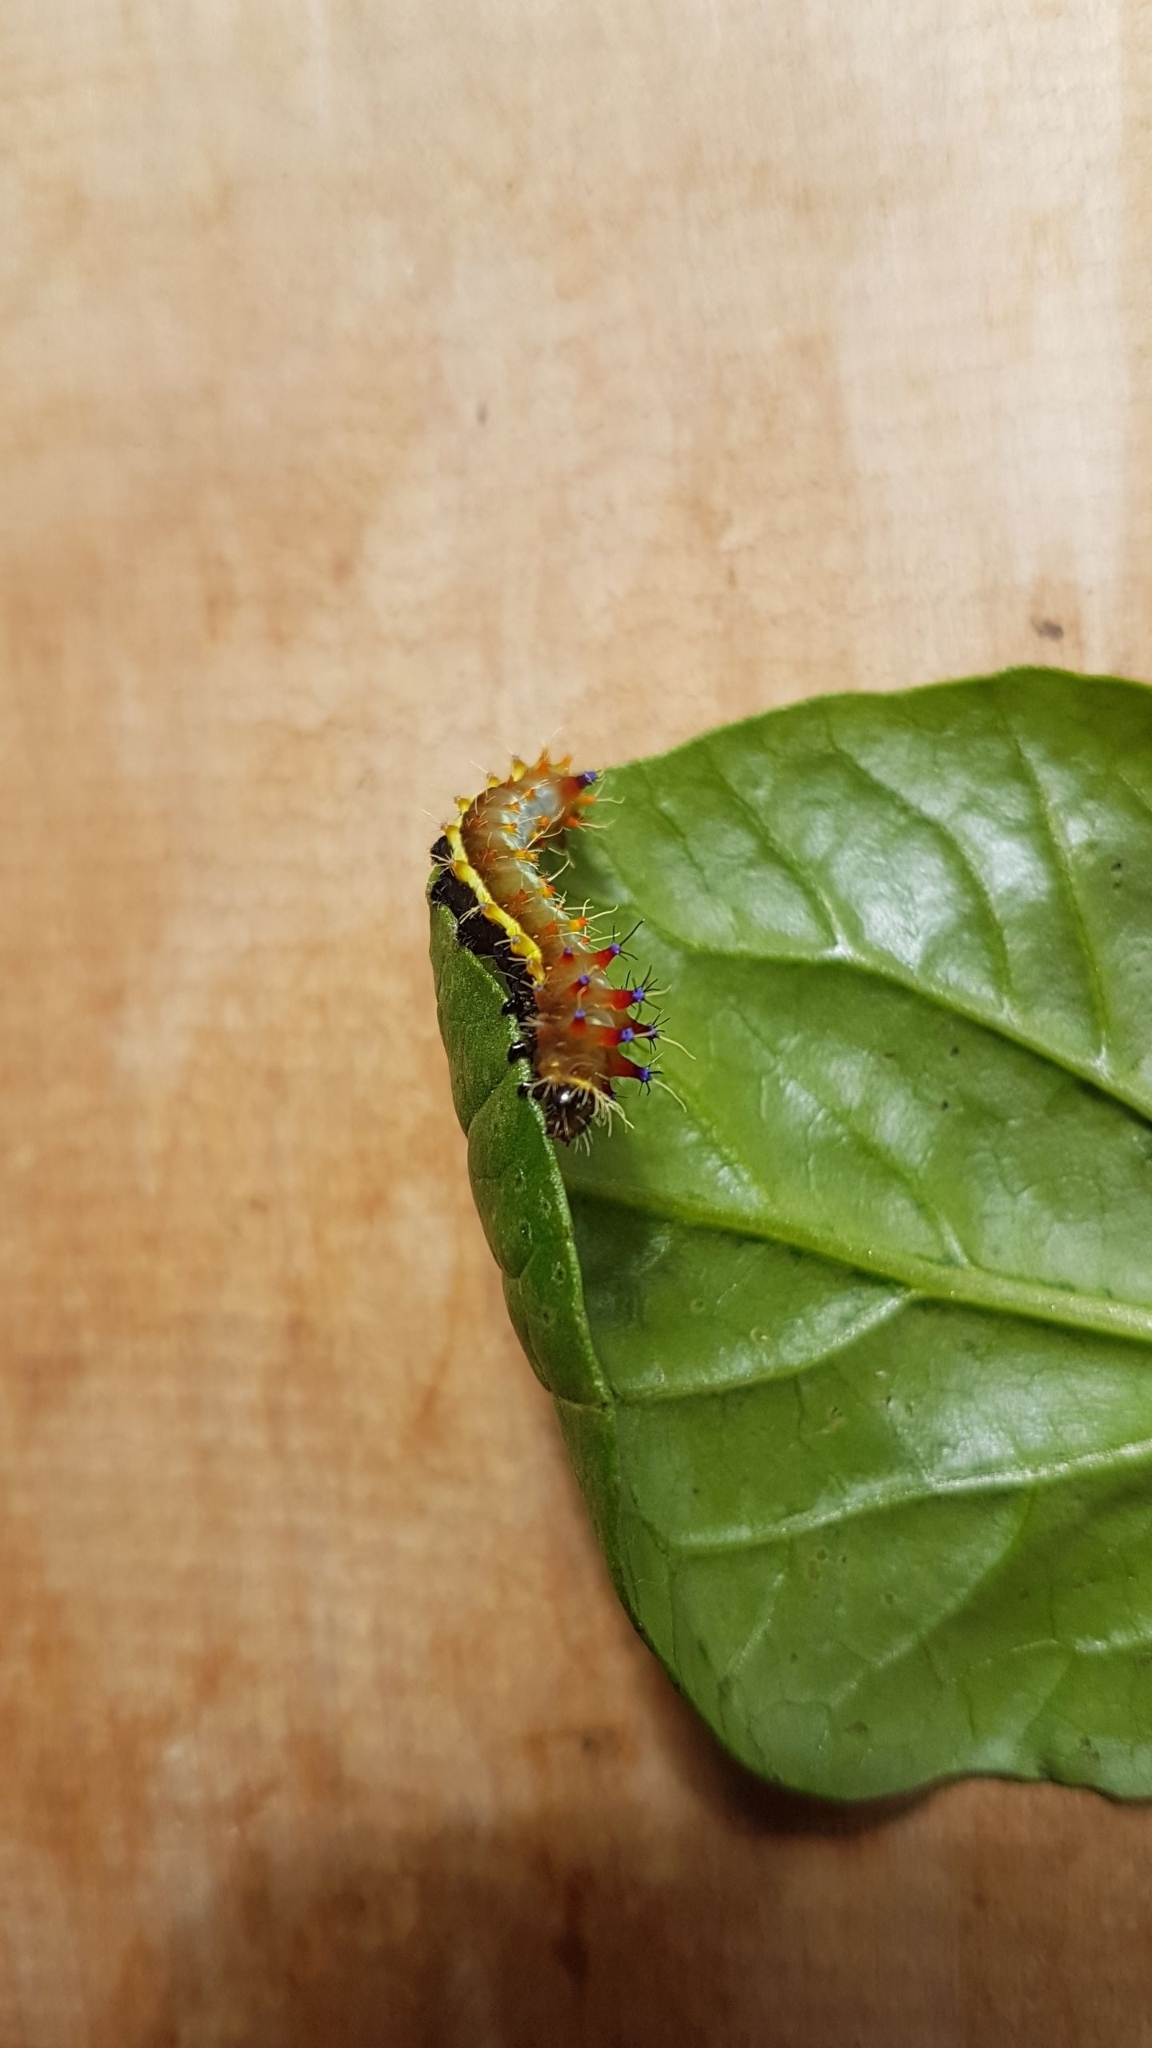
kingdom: Animalia
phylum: Arthropoda
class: Insecta
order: Lepidoptera
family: Saturniidae
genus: Opodiphthera
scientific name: Opodiphthera
